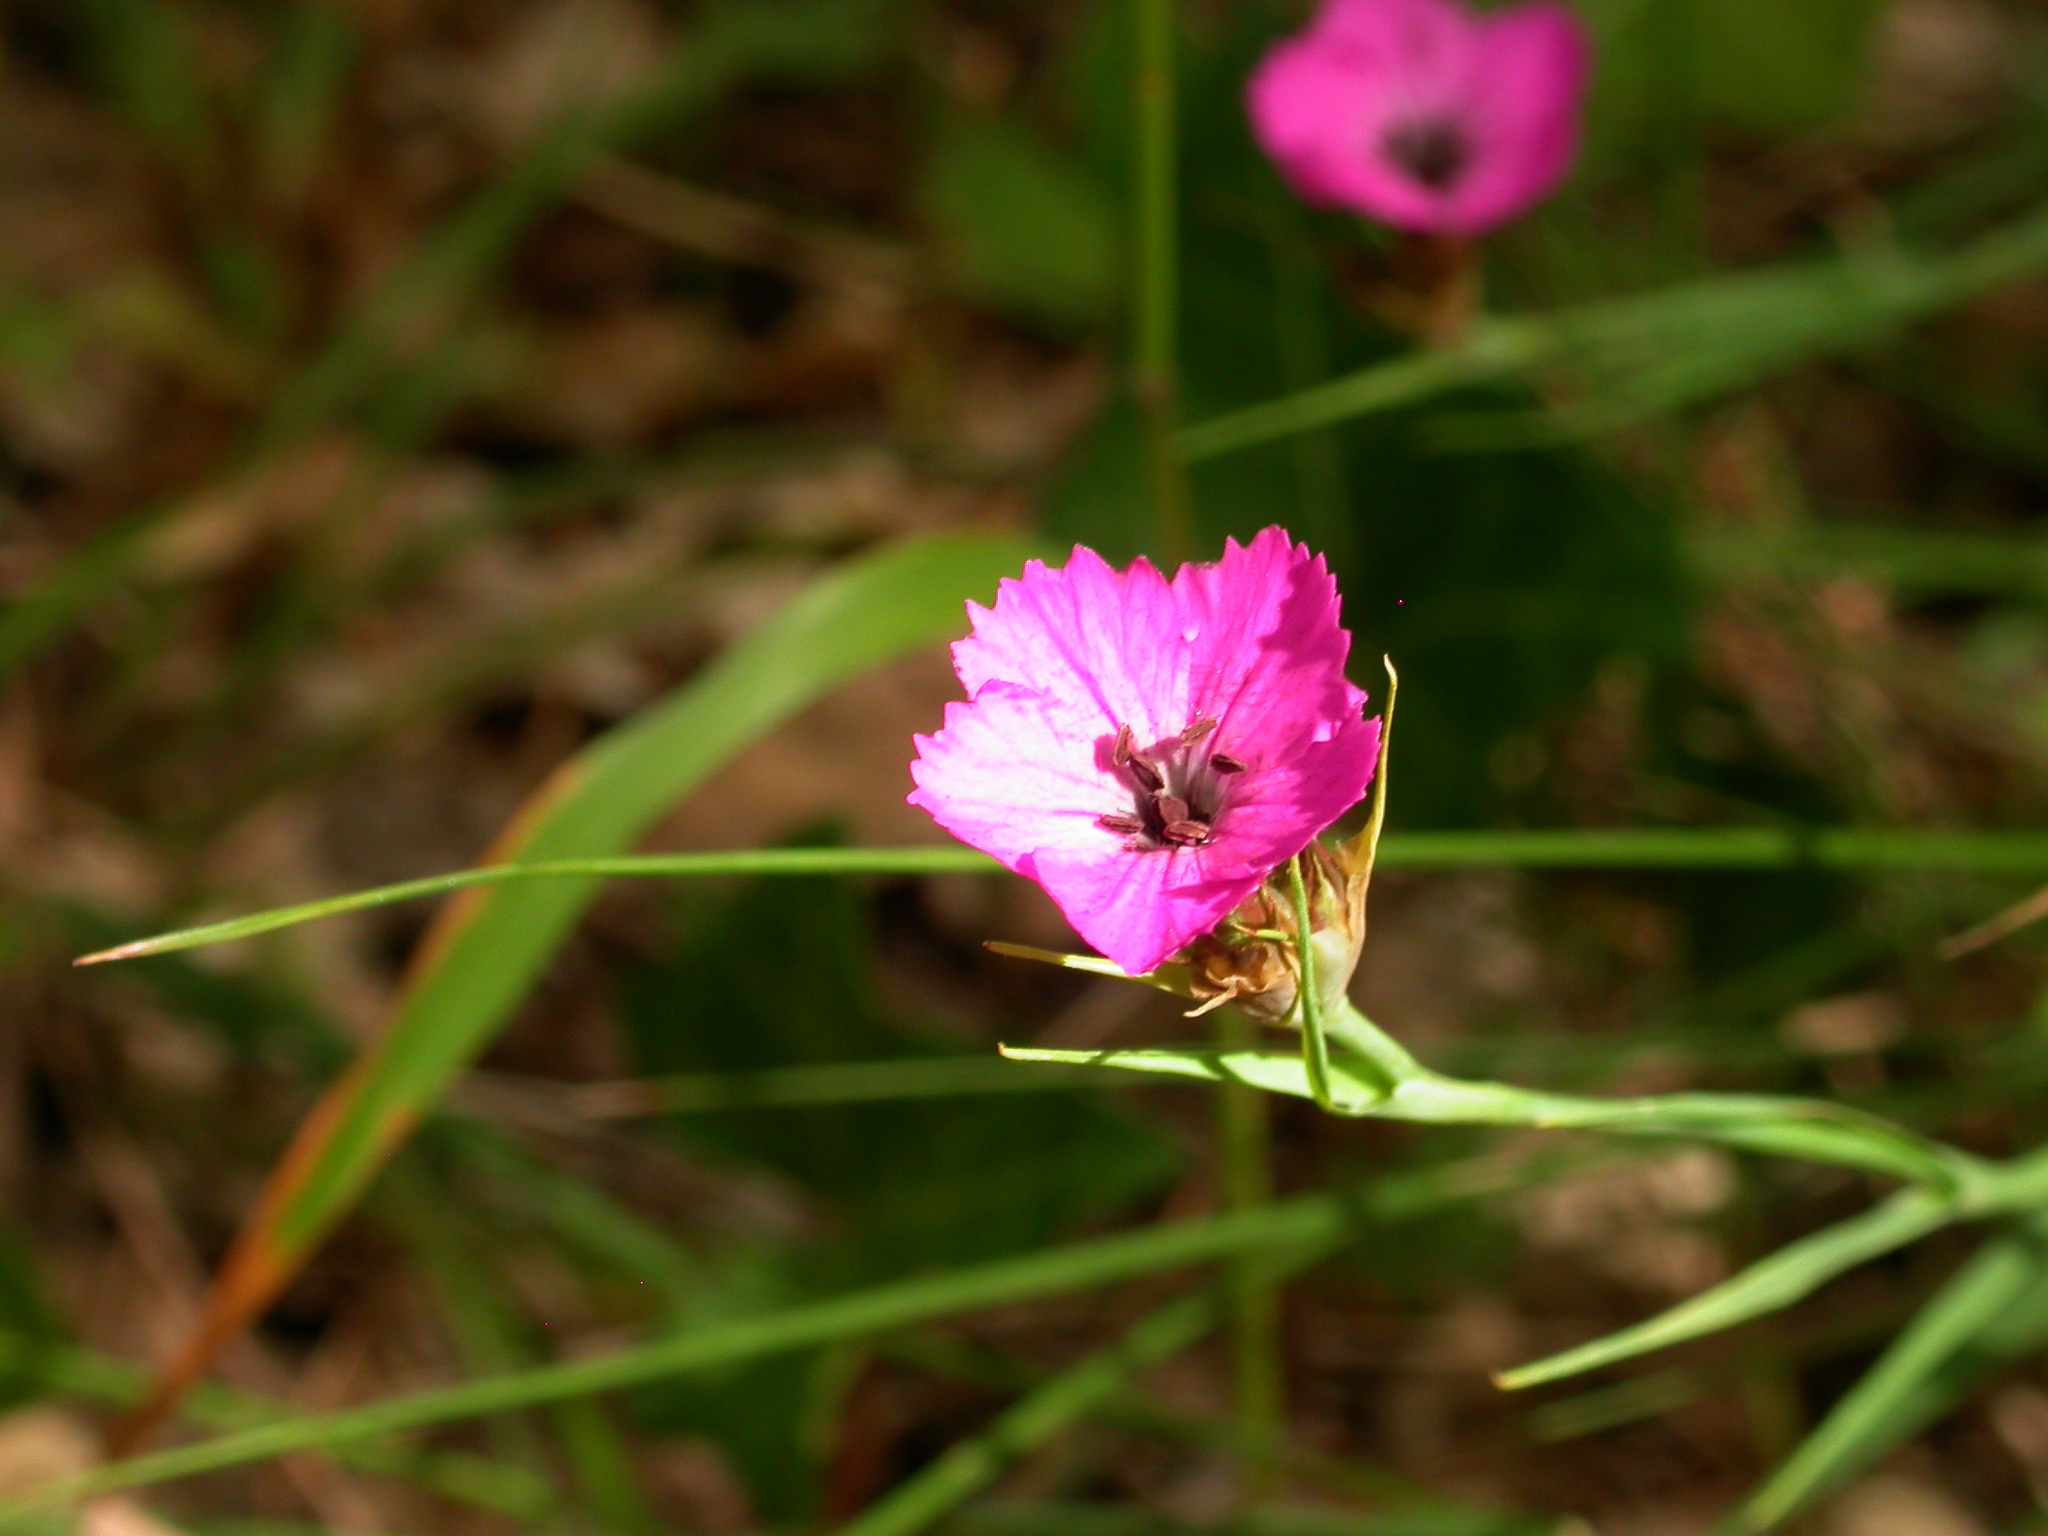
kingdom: Plantae
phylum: Tracheophyta
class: Magnoliopsida
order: Caryophyllales
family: Caryophyllaceae
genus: Dianthus
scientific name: Dianthus carthusianorum
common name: Carthusian pink
